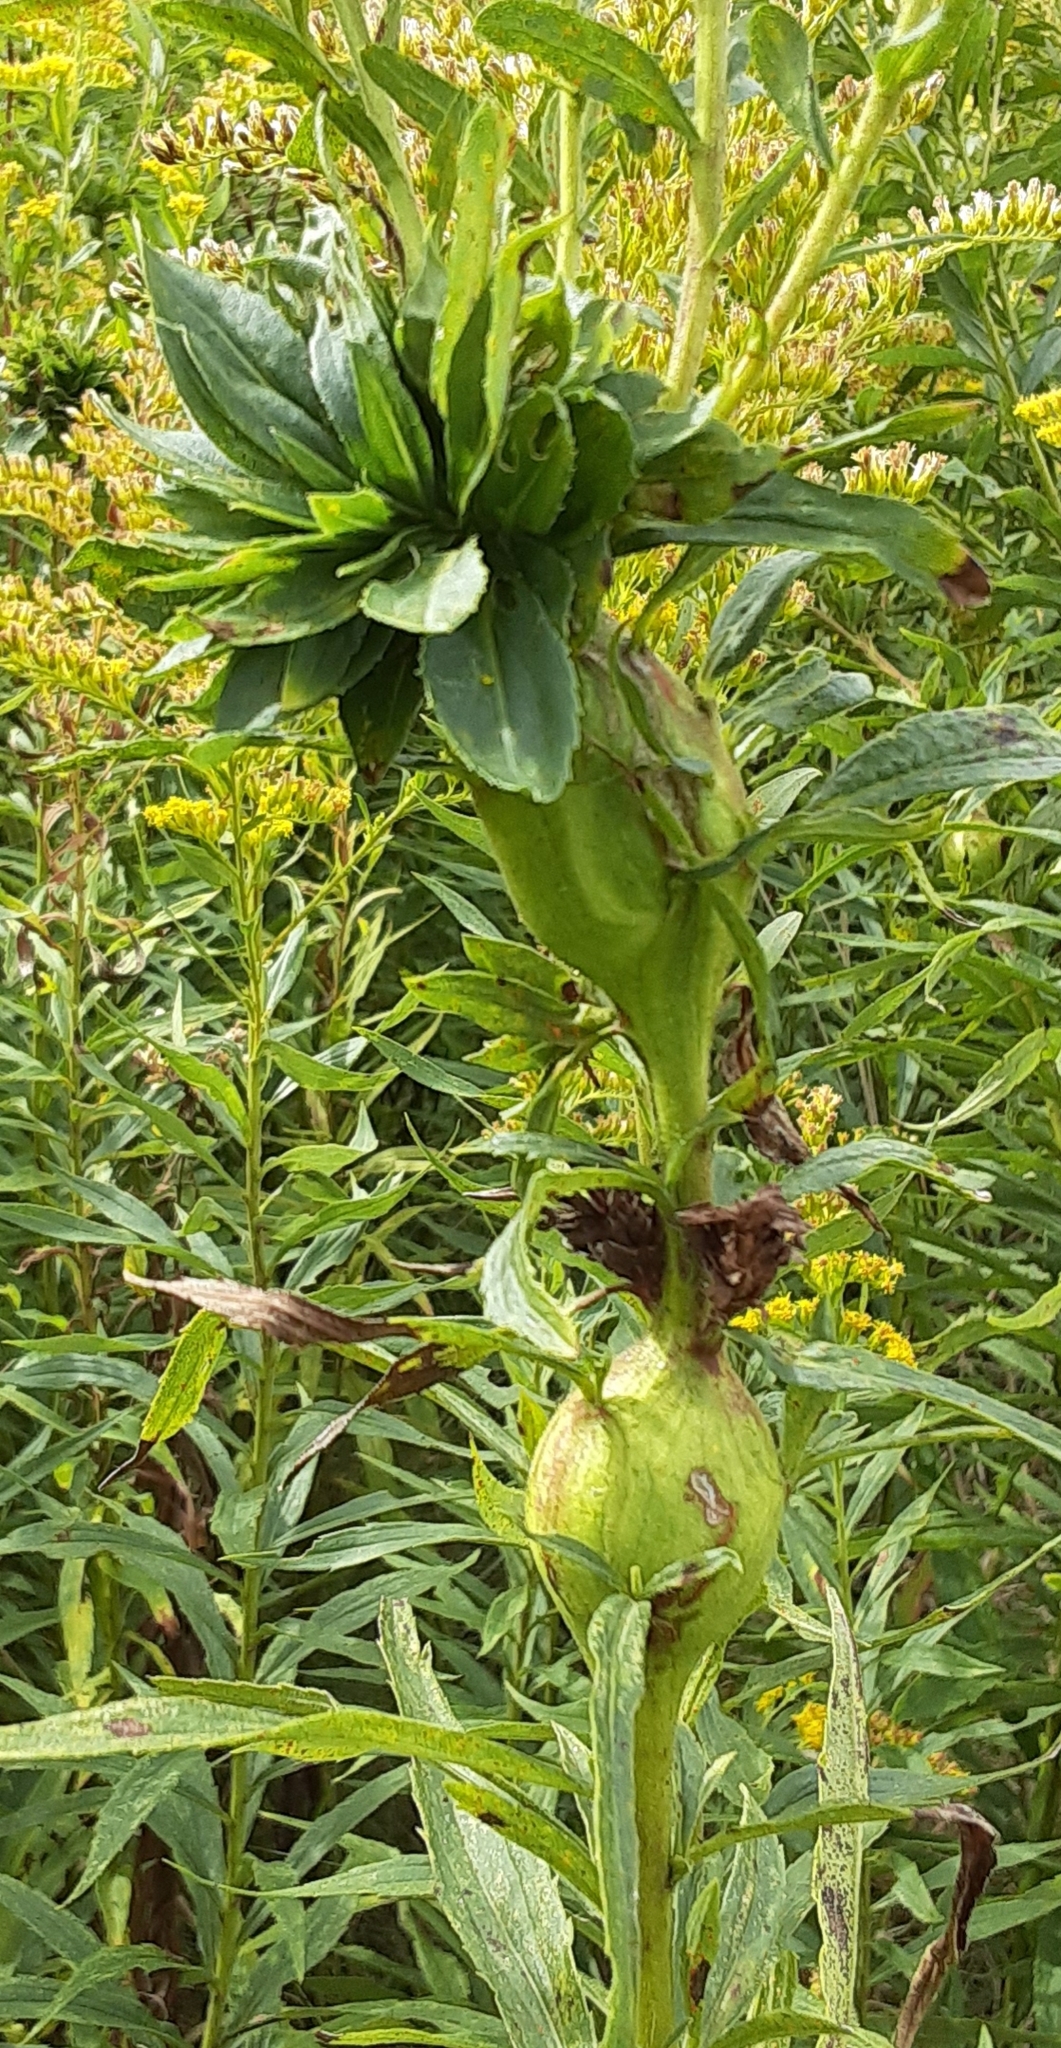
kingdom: Animalia
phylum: Arthropoda
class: Insecta
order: Diptera
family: Cecidomyiidae
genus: Rhopalomyia
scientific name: Rhopalomyia solidaginis
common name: Goldenrod bunch gall midge
